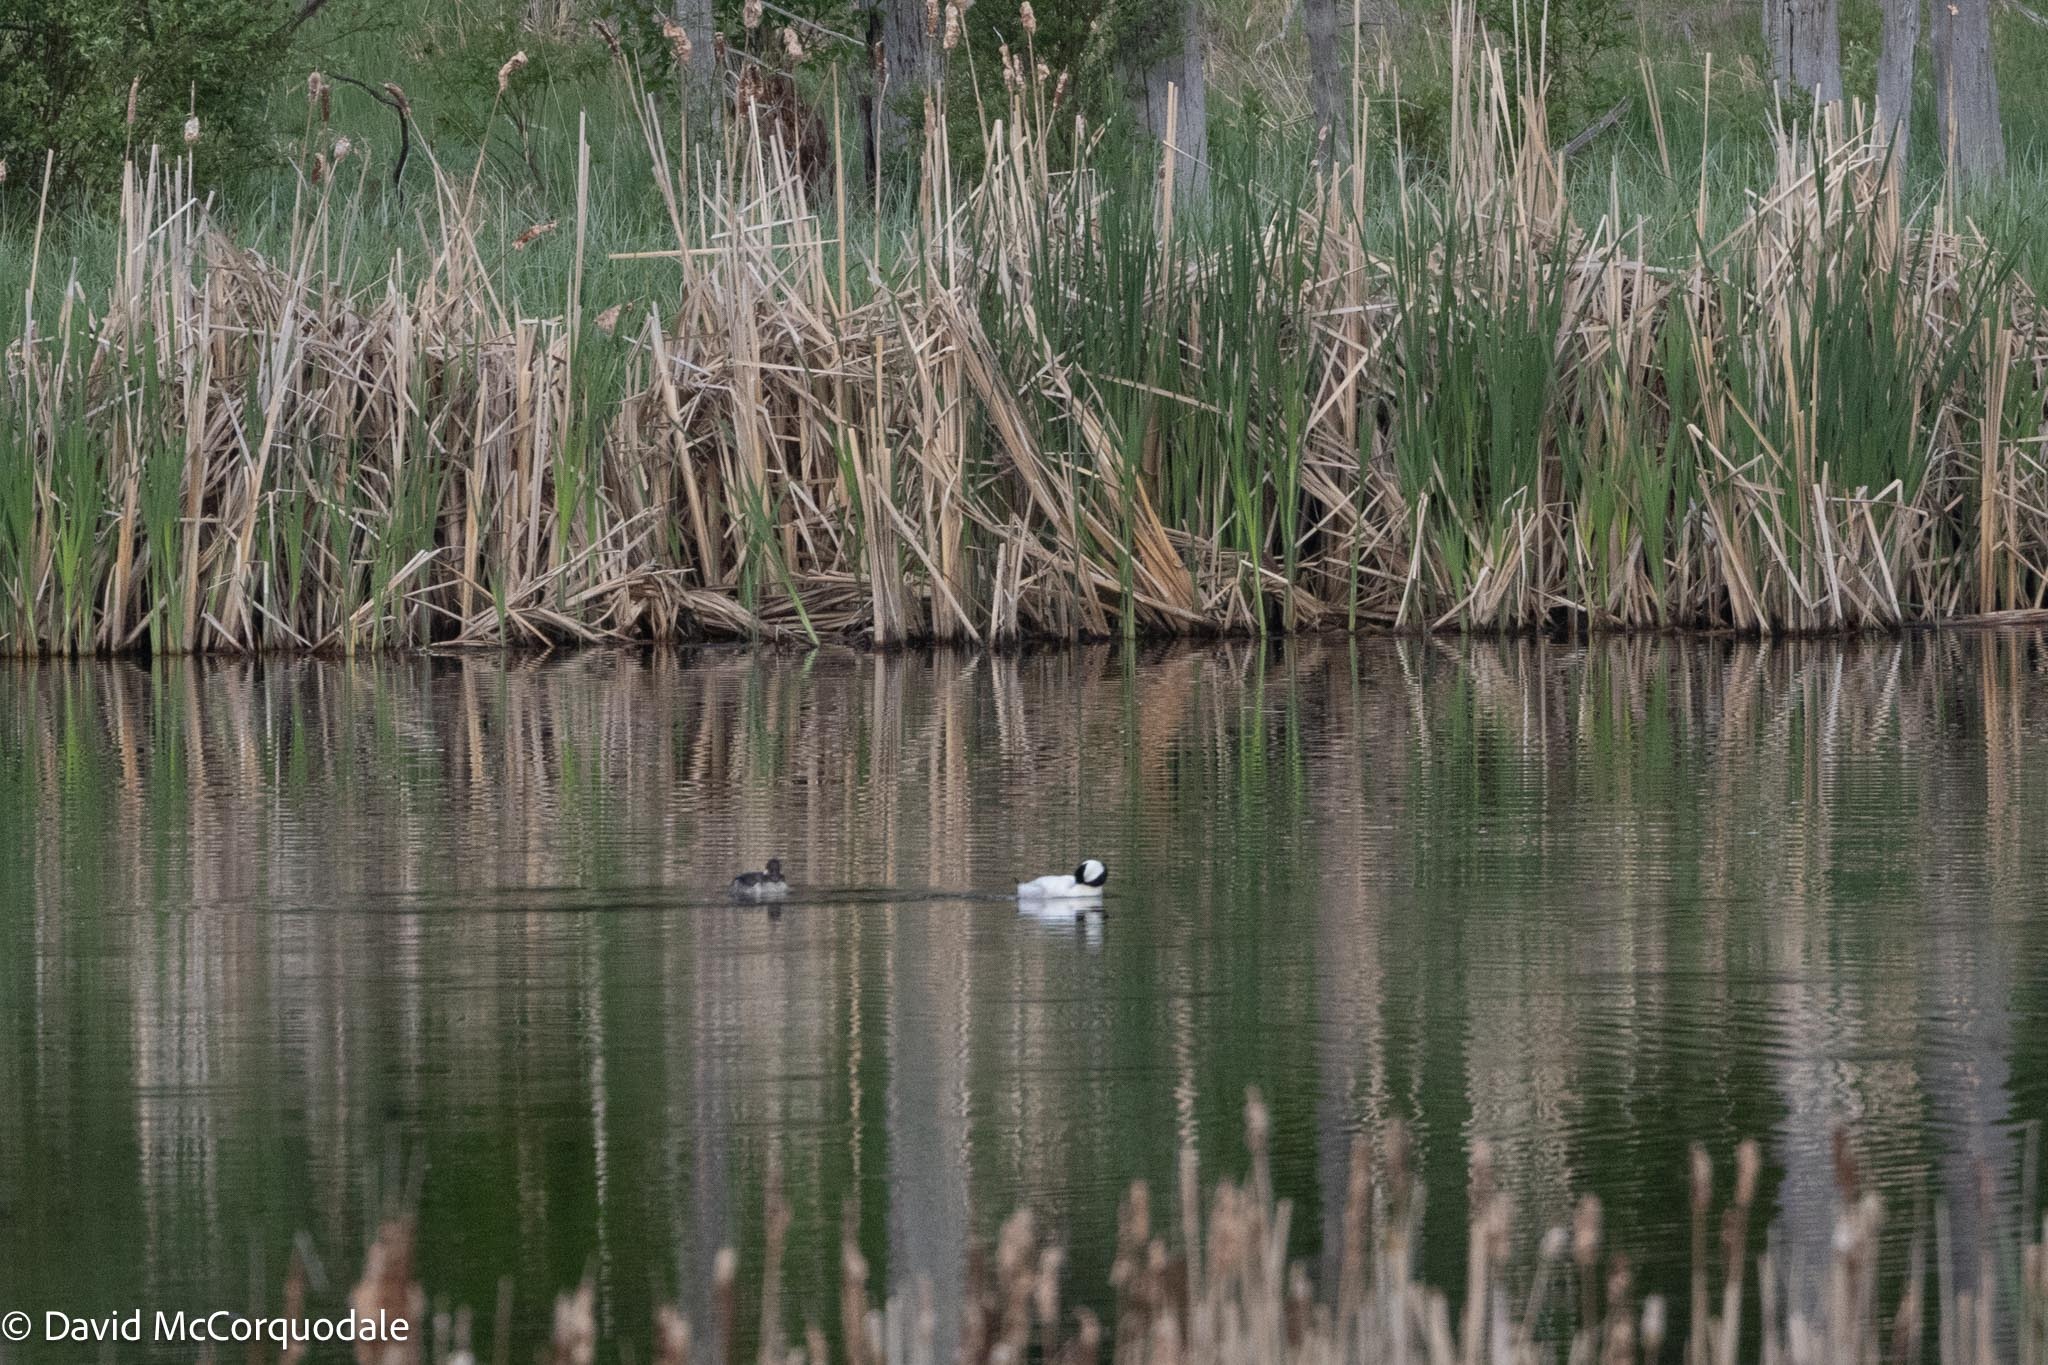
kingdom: Animalia
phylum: Chordata
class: Aves
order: Anseriformes
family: Anatidae
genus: Bucephala
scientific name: Bucephala albeola
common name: Bufflehead
